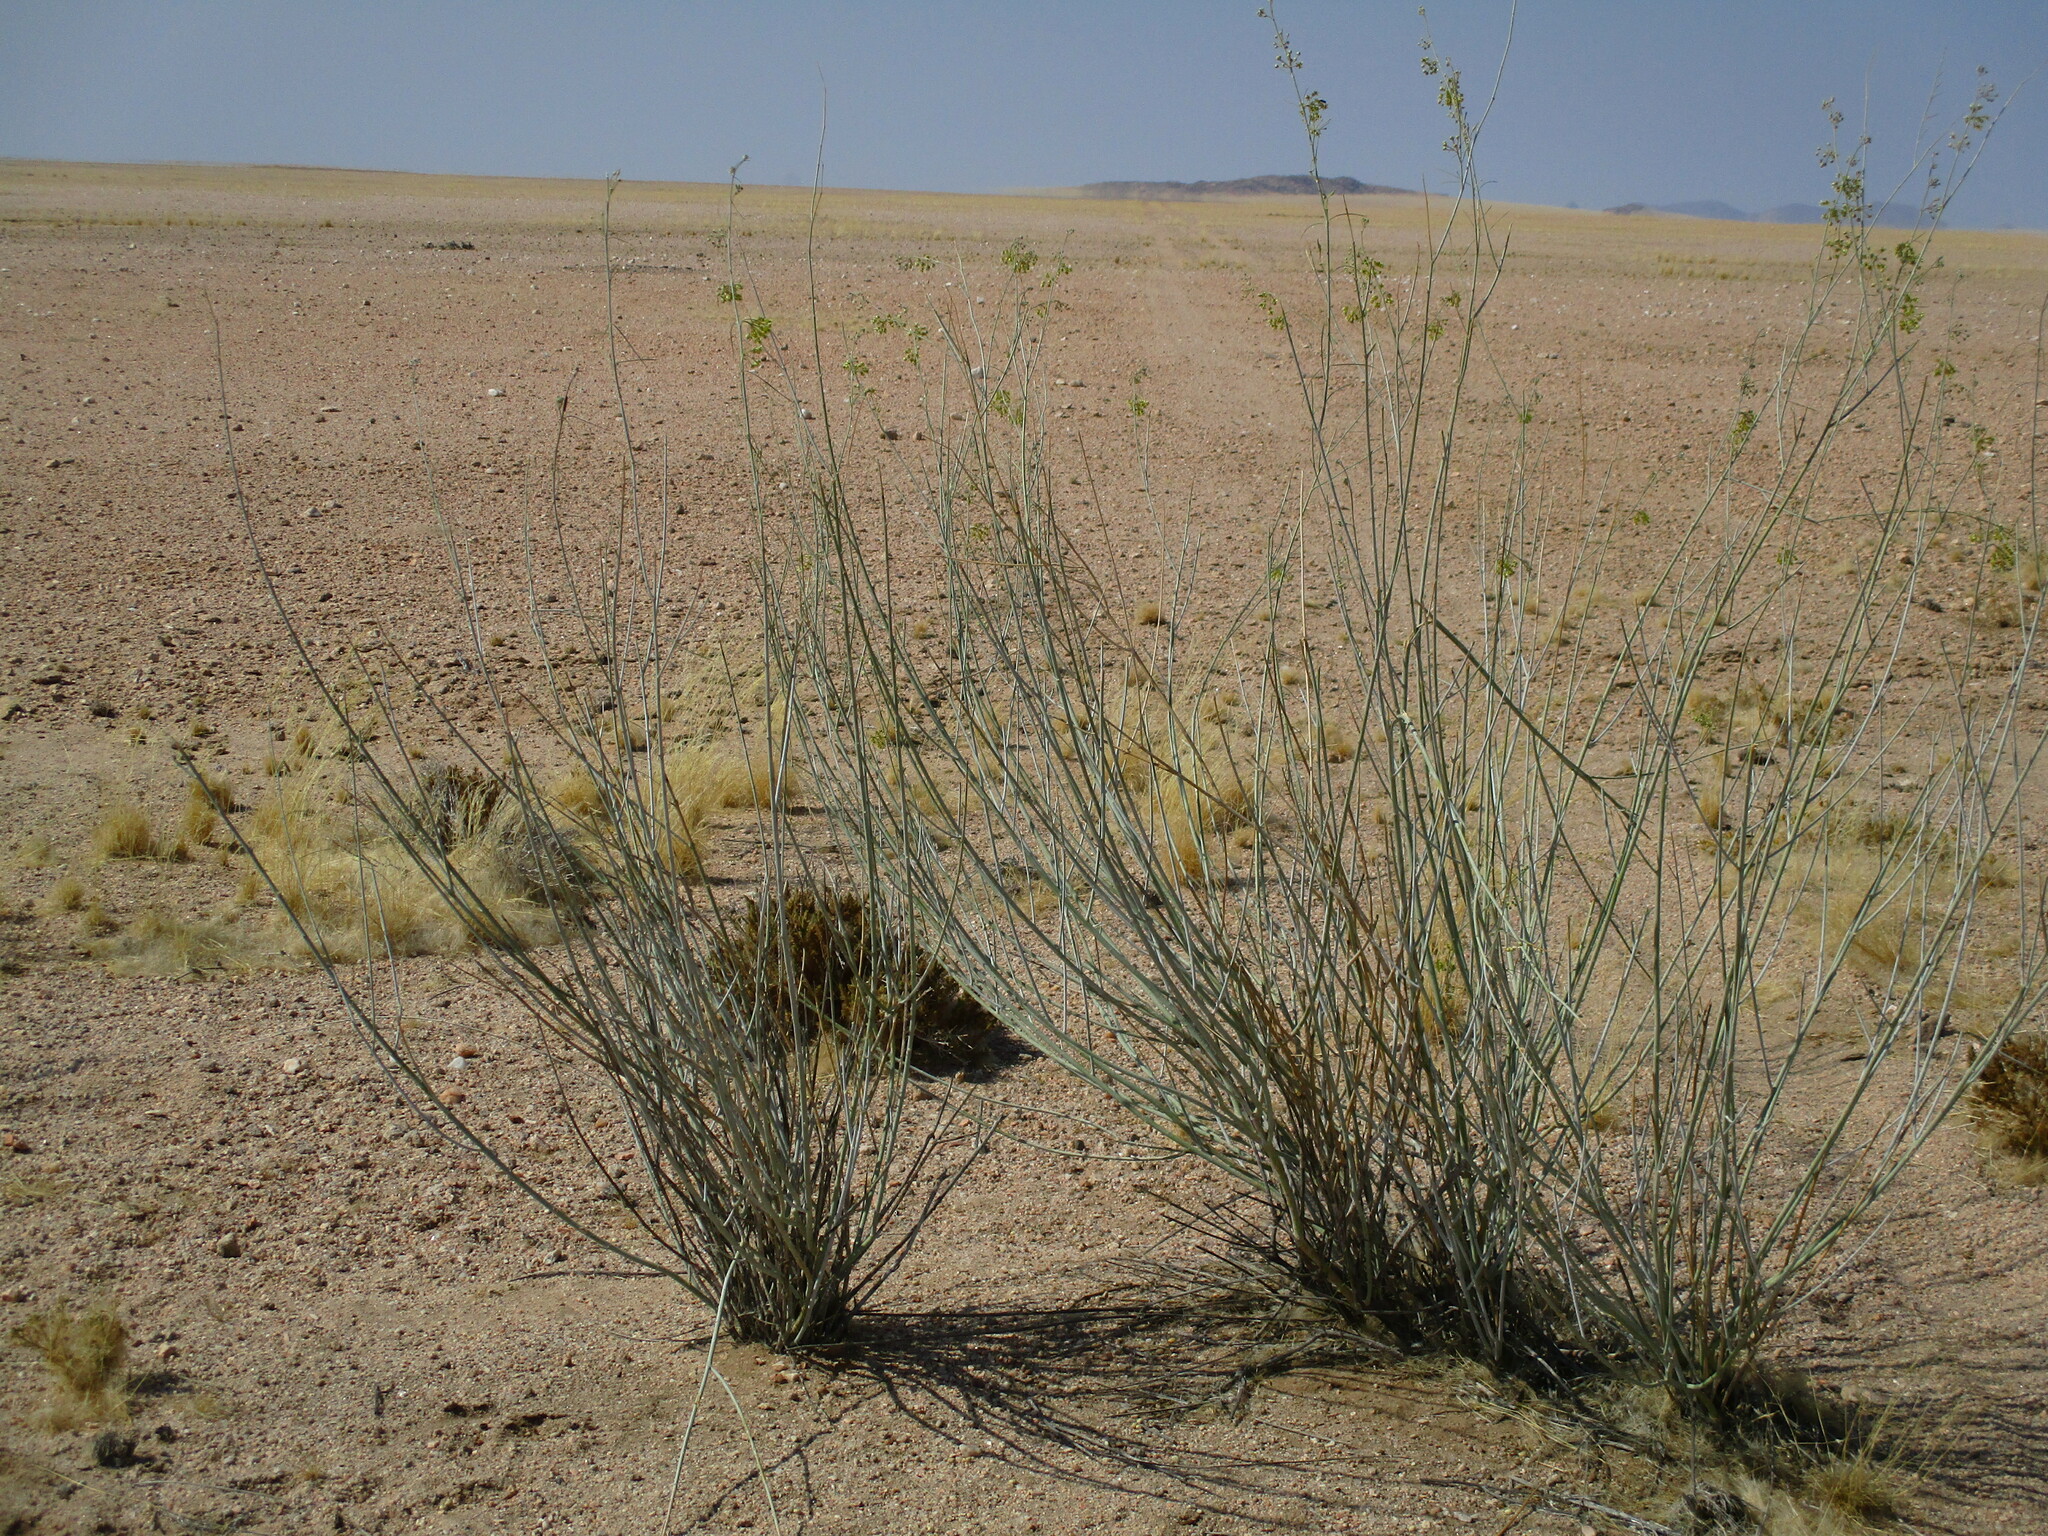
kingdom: Plantae
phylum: Tracheophyta
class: Magnoliopsida
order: Gentianales
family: Apocynaceae
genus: Gomphocarpus
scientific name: Gomphocarpus filiformis
